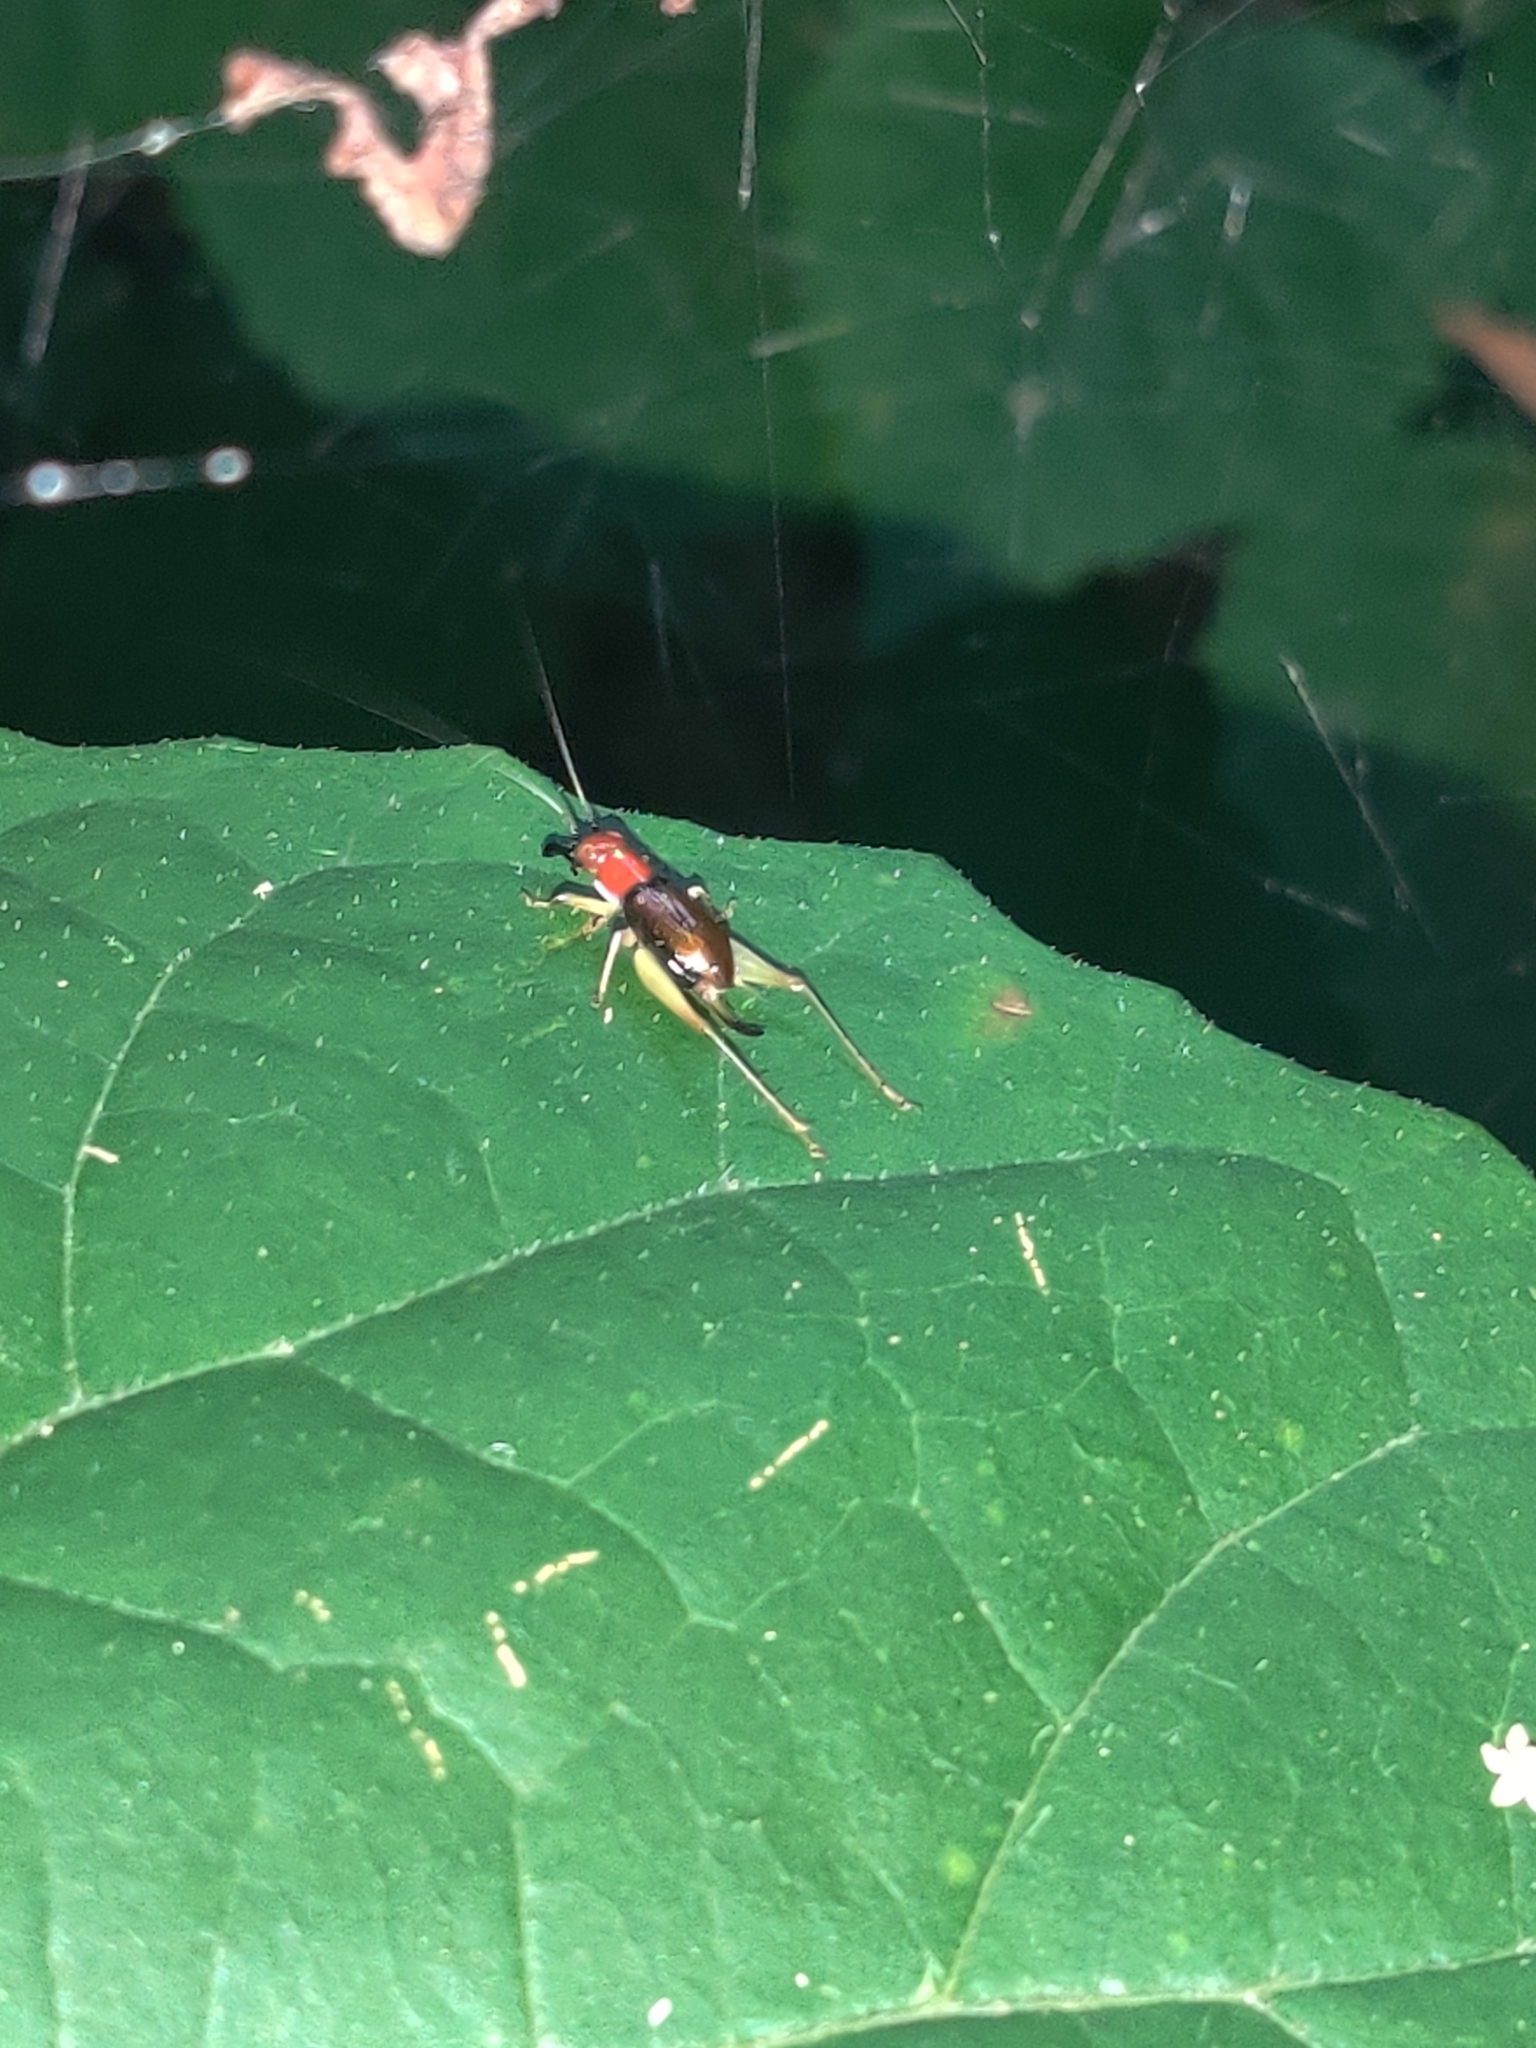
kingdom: Animalia
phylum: Arthropoda
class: Insecta
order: Orthoptera
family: Trigonidiidae
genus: Phyllopalpus
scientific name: Phyllopalpus pulchellus
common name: Handsome trig
